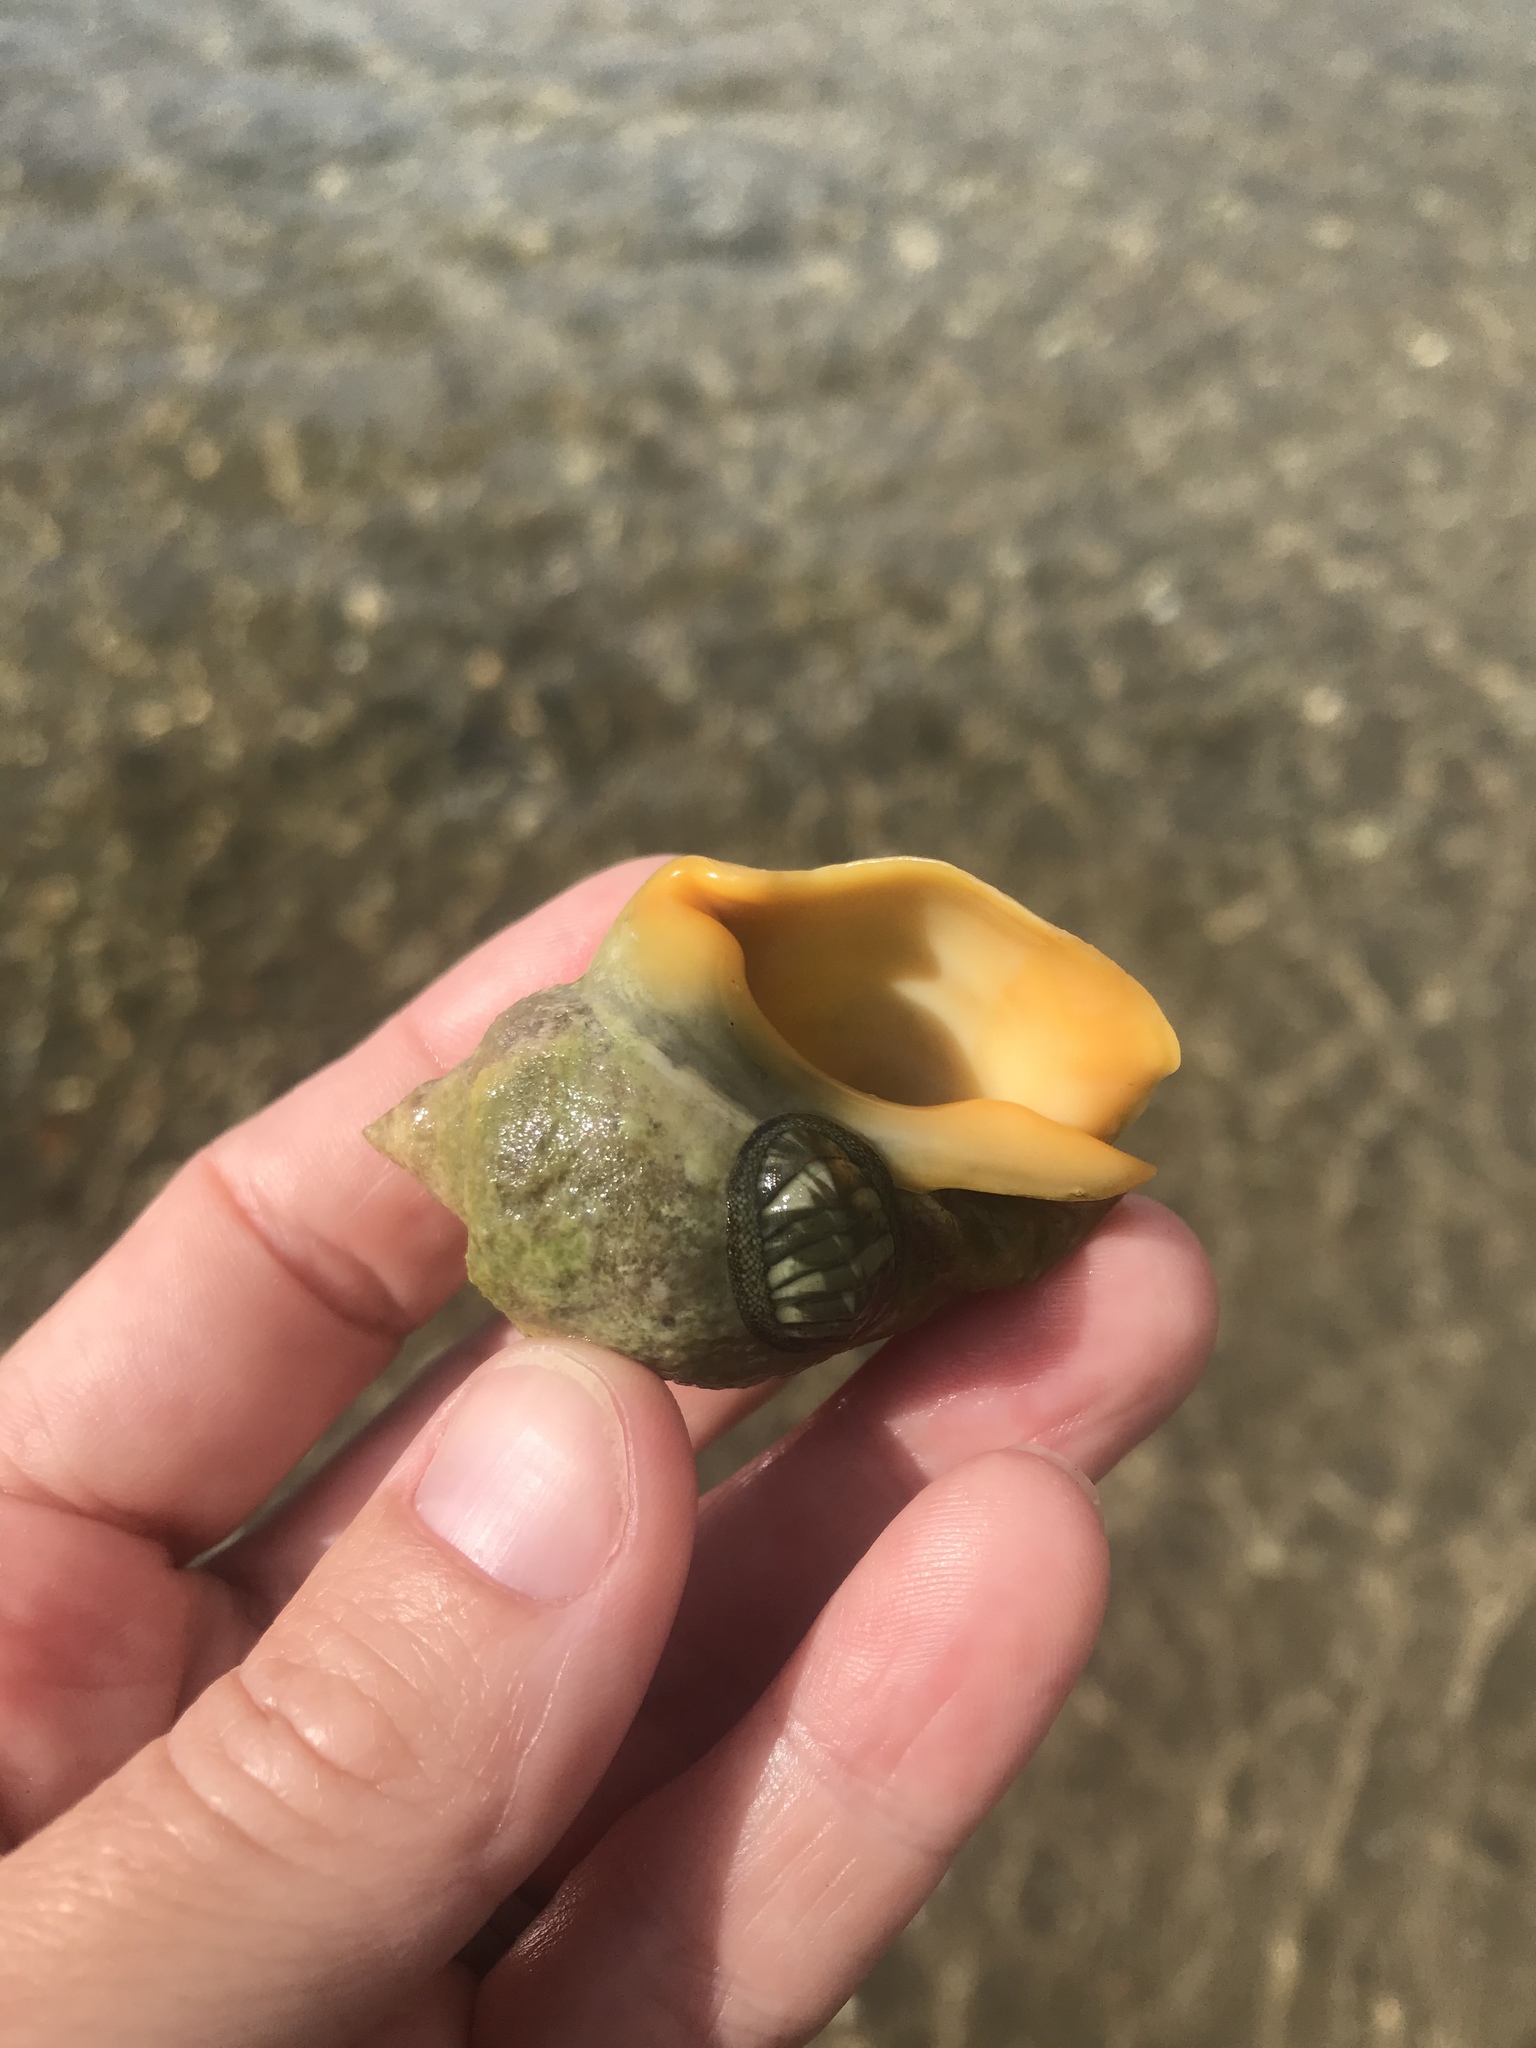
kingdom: Animalia
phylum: Mollusca
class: Gastropoda
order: Neogastropoda
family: Cominellidae
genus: Cominella
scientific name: Cominella adspersa
